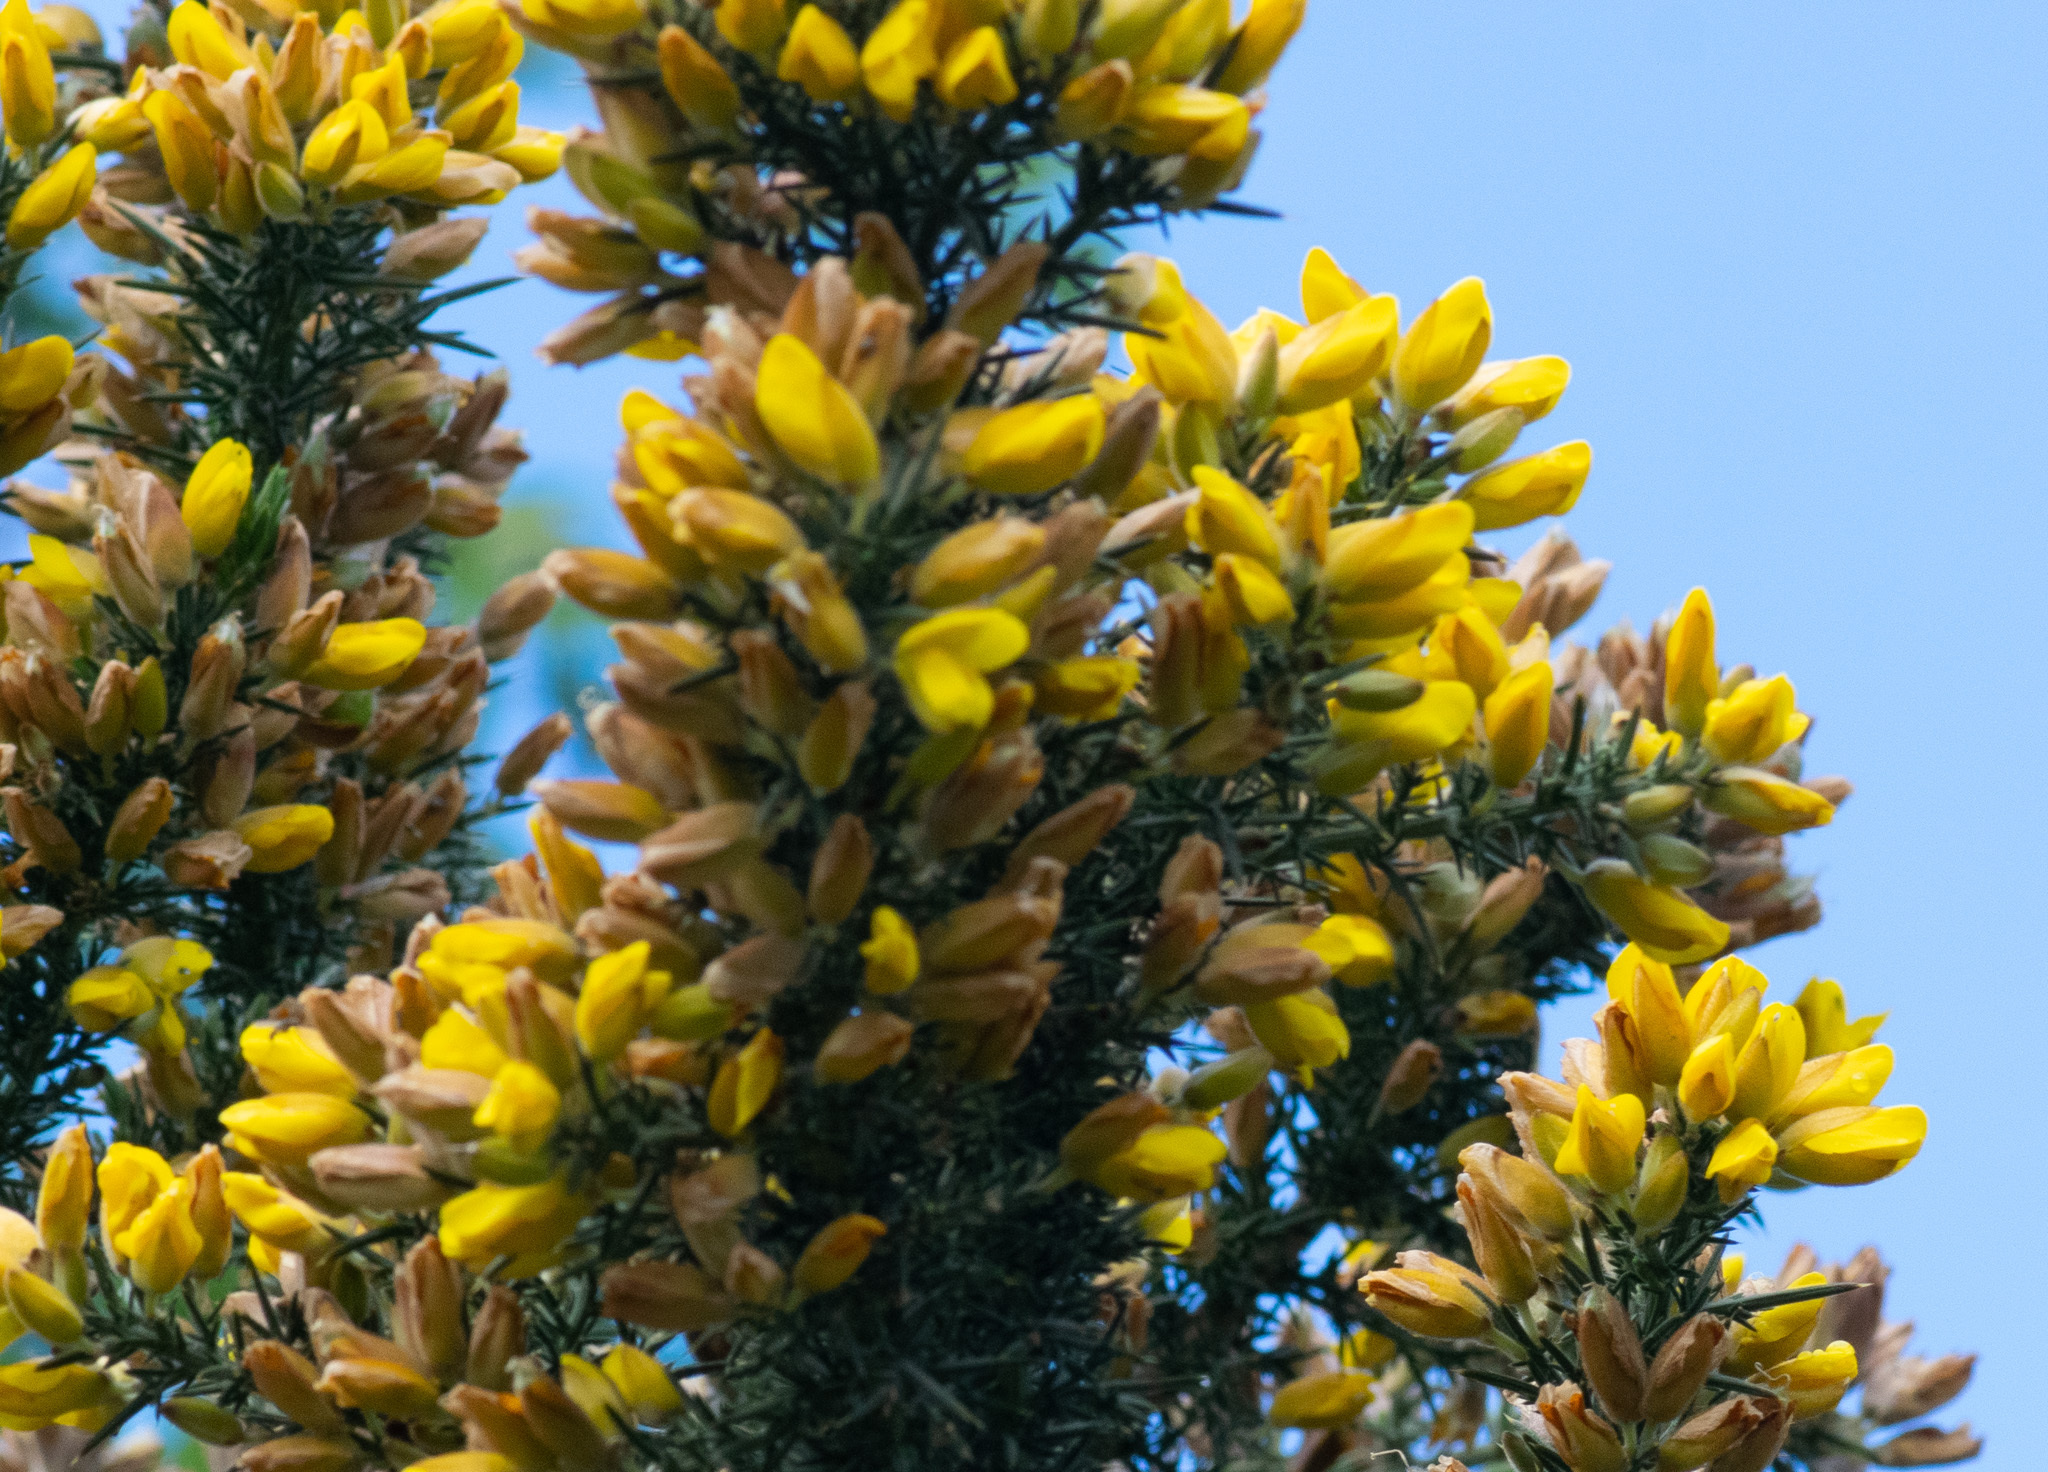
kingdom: Plantae
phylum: Tracheophyta
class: Magnoliopsida
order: Fabales
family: Fabaceae
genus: Ulex
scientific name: Ulex europaeus
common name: Common gorse
